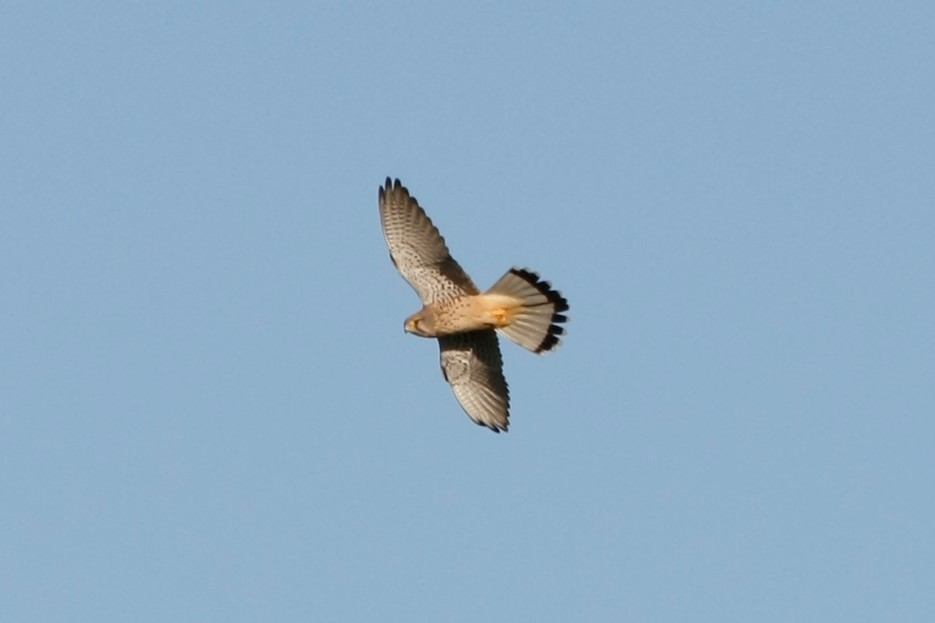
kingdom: Animalia
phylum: Chordata
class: Aves
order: Falconiformes
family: Falconidae
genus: Falco
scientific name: Falco tinnunculus
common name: Common kestrel
